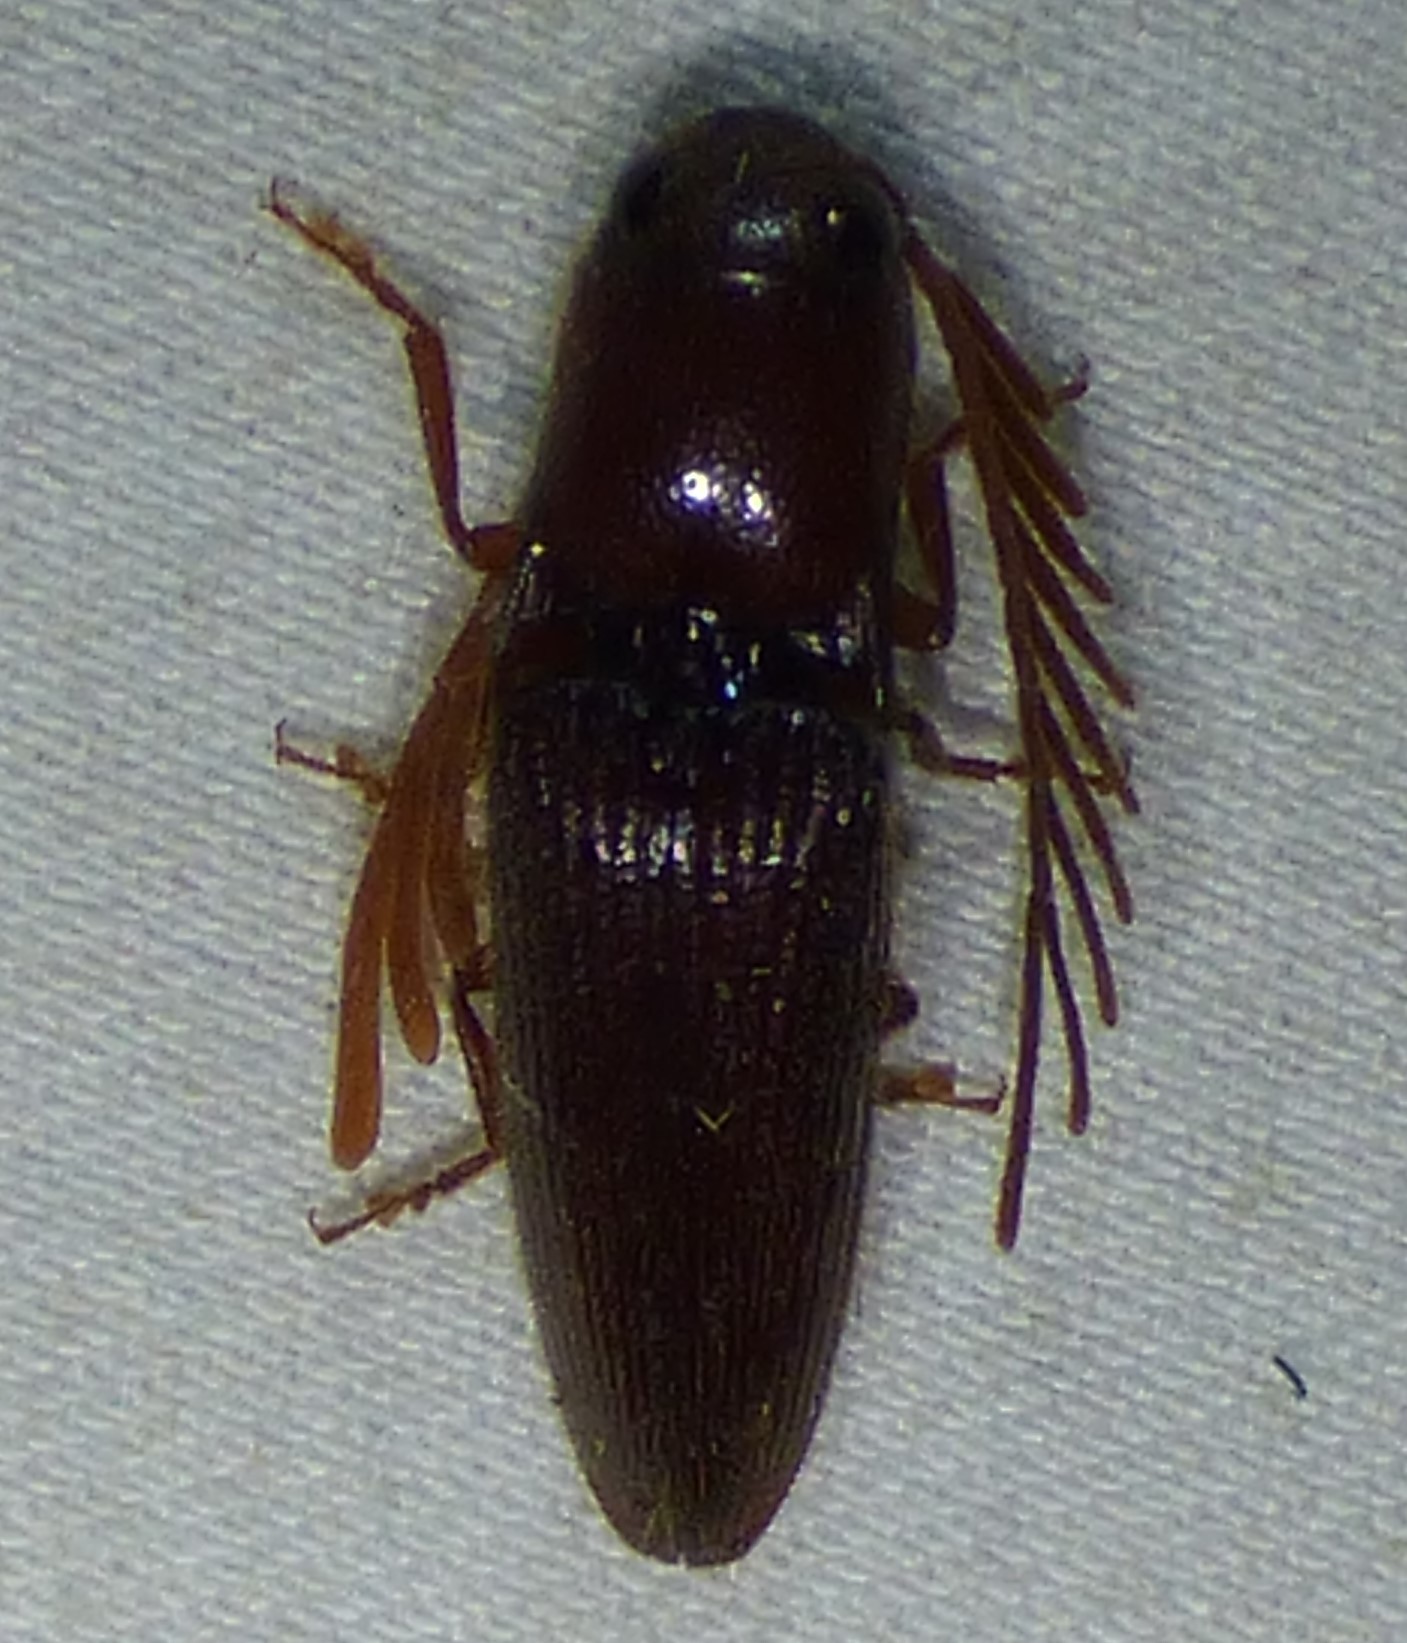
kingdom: Animalia
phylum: Arthropoda
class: Insecta
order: Coleoptera
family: Elateridae
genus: Dicrepidius
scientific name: Dicrepidius palmatus
